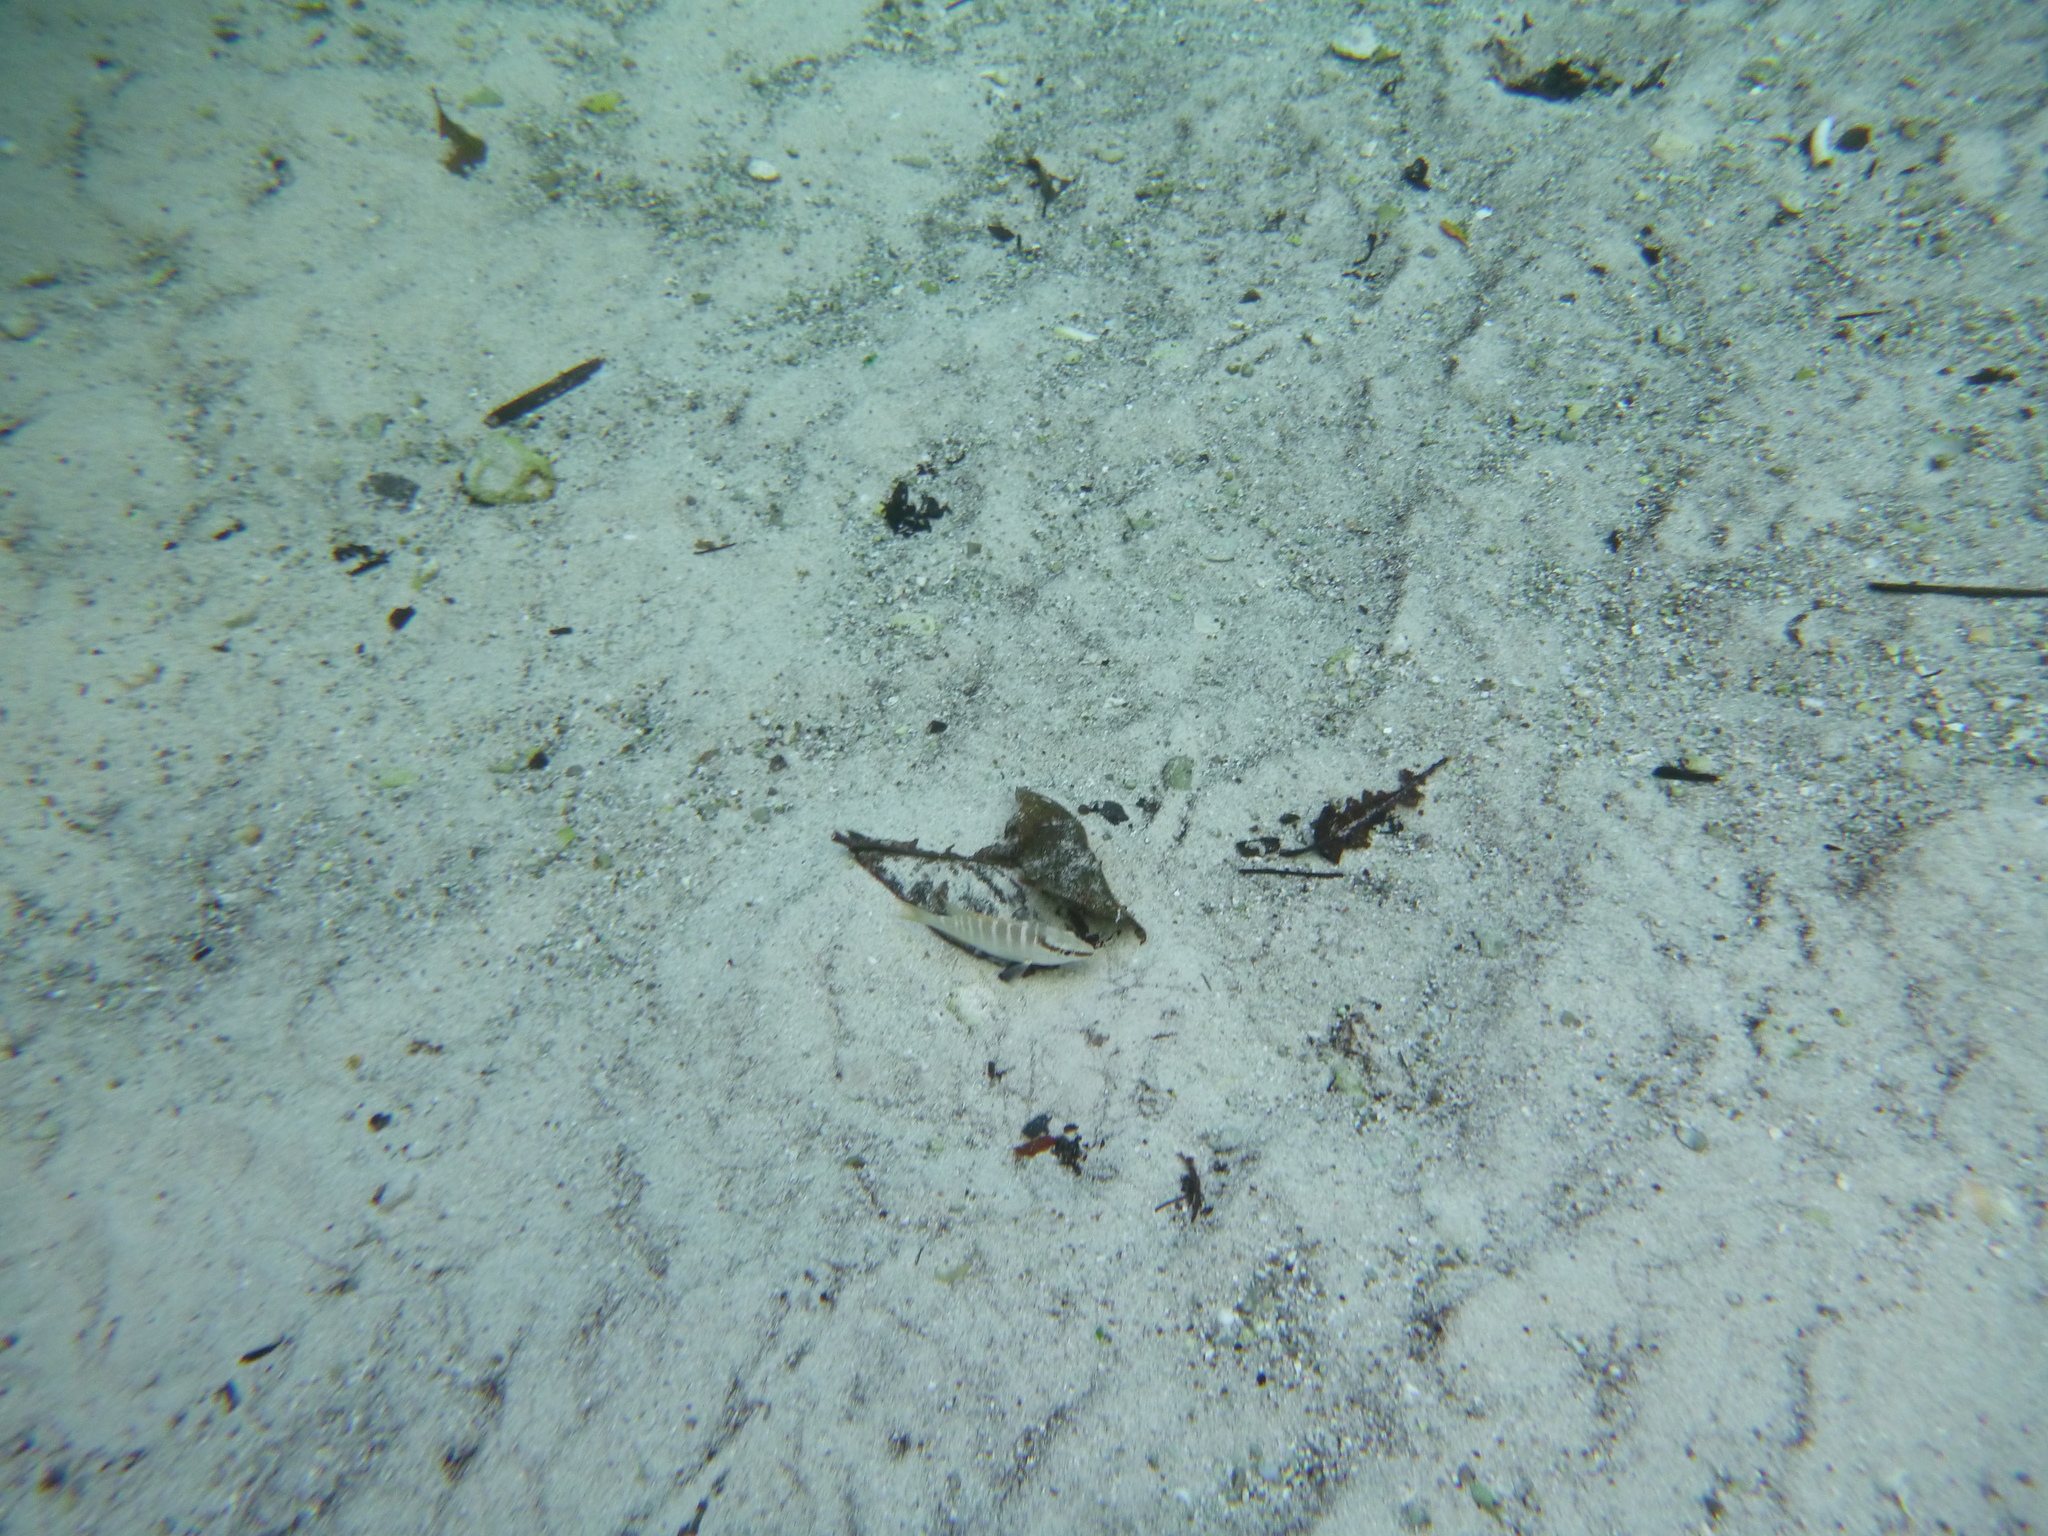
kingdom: Animalia
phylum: Chordata
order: Perciformes
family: Lutjanidae
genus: Lutjanus
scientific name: Lutjanus apodus
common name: Schoolmaster
